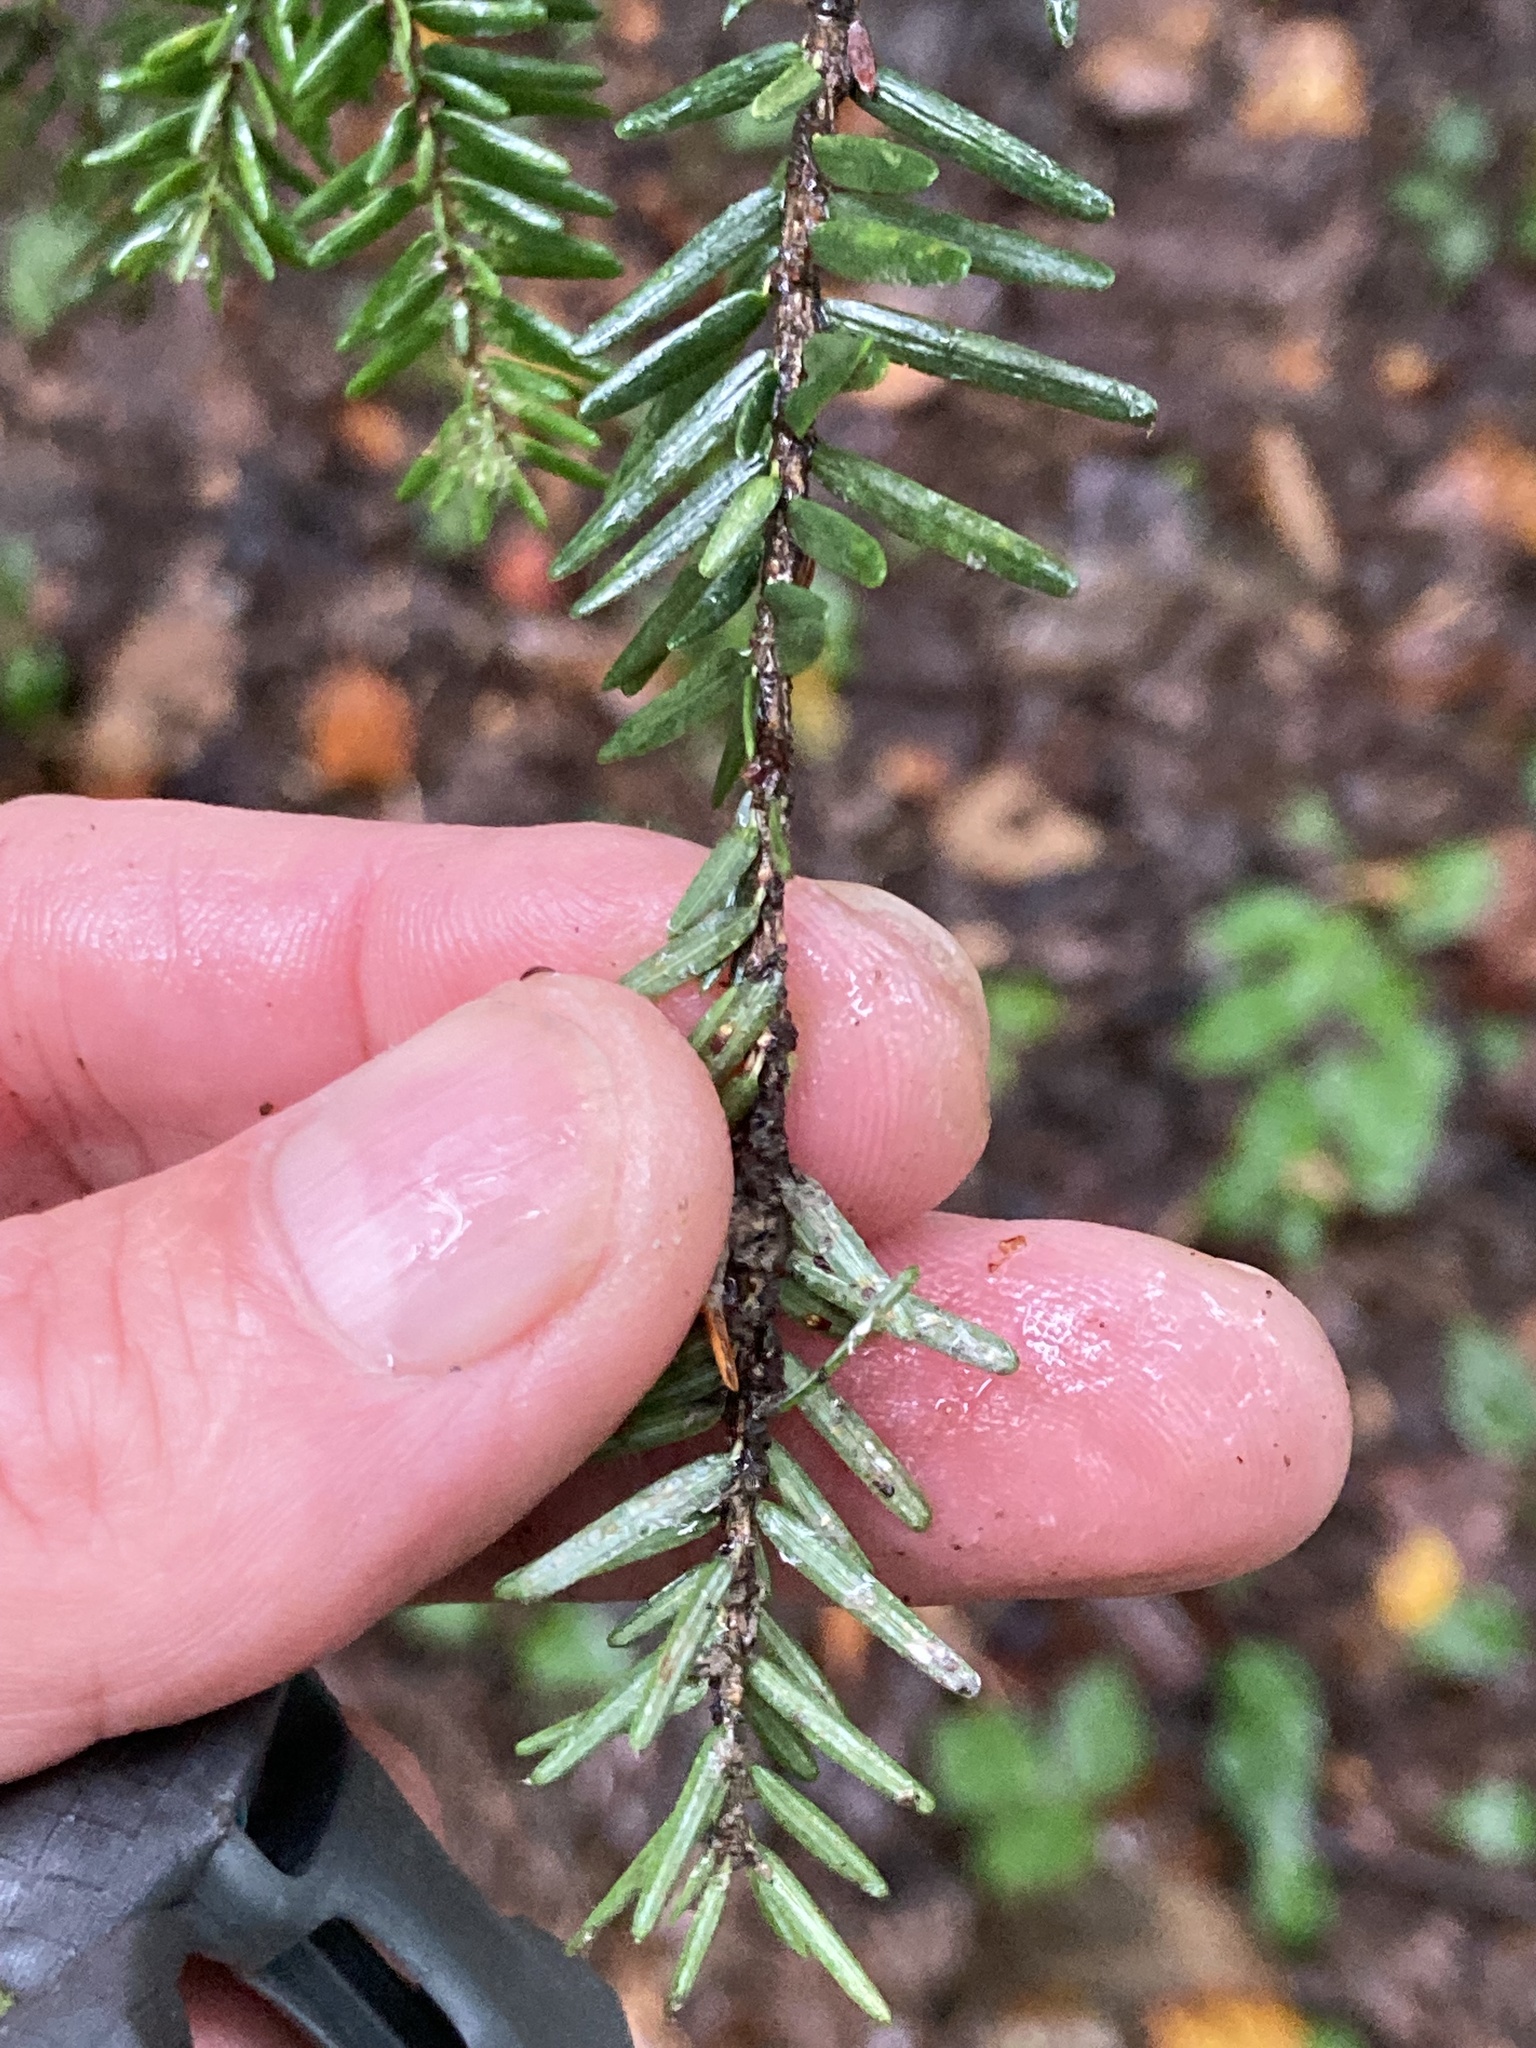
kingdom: Plantae
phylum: Tracheophyta
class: Pinopsida
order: Pinales
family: Pinaceae
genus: Tsuga
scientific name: Tsuga canadensis
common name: Eastern hemlock
